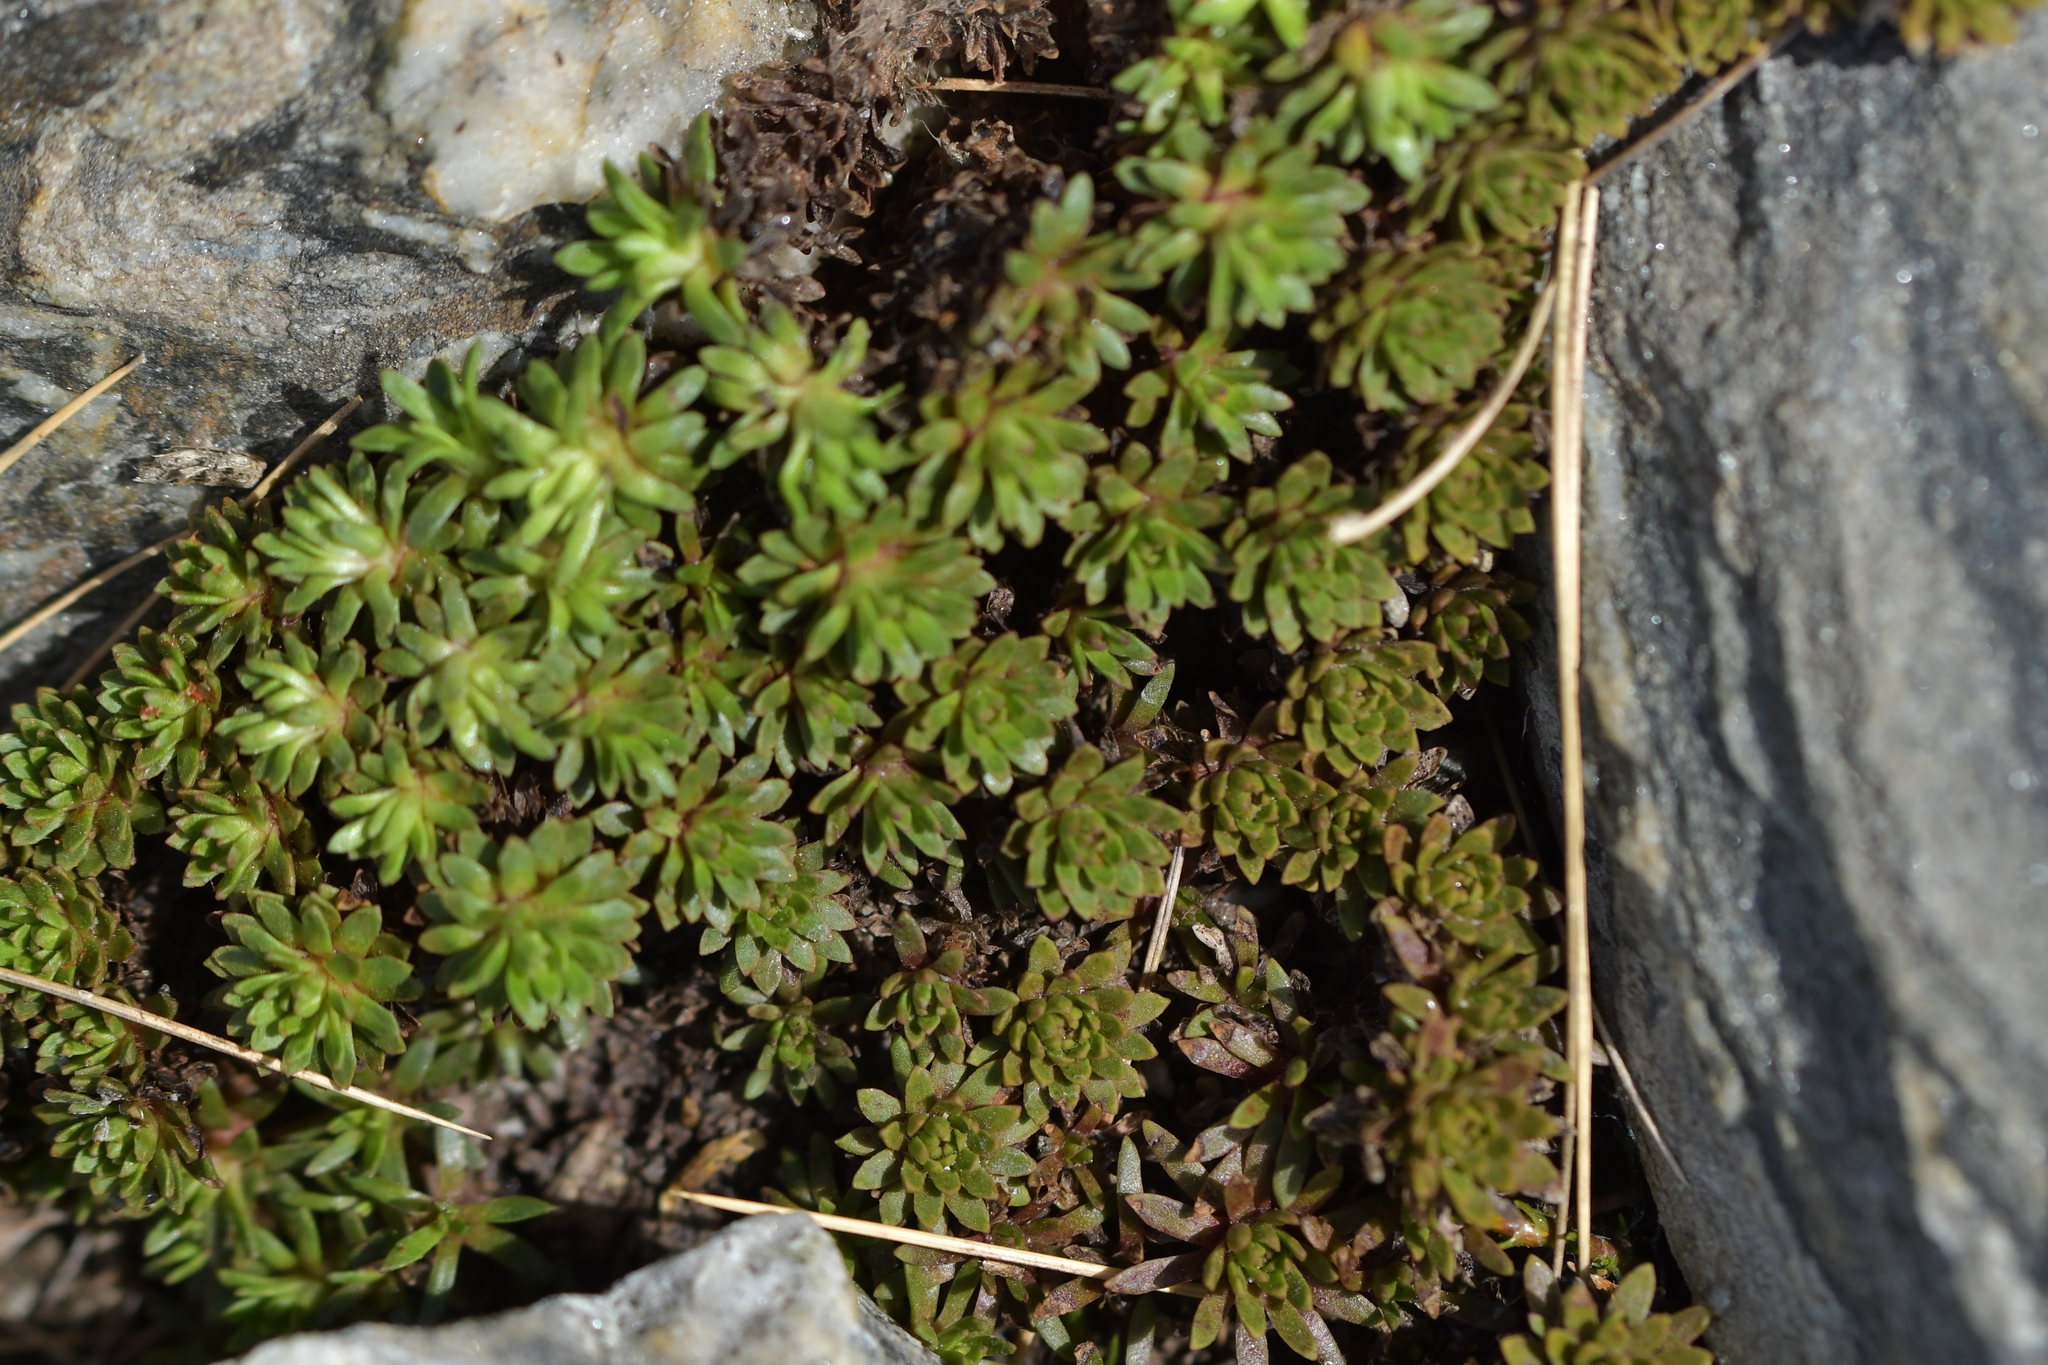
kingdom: Plantae
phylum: Tracheophyta
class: Magnoliopsida
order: Caryophyllales
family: Montiaceae
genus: Hectorella
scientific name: Hectorella caespitosa
